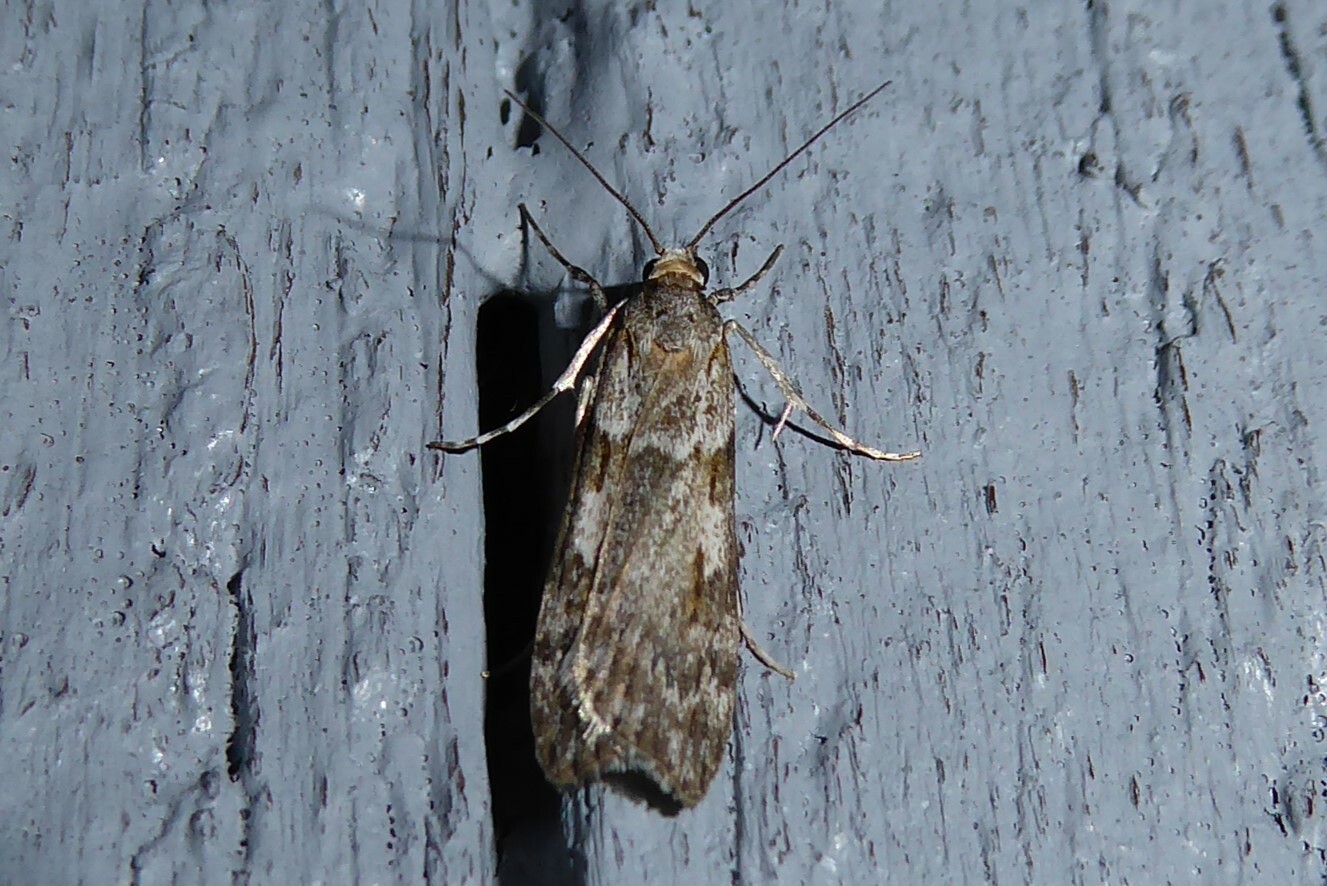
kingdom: Animalia
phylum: Arthropoda
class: Insecta
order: Lepidoptera
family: Crambidae
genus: Scoparia
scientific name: Scoparia halopis
